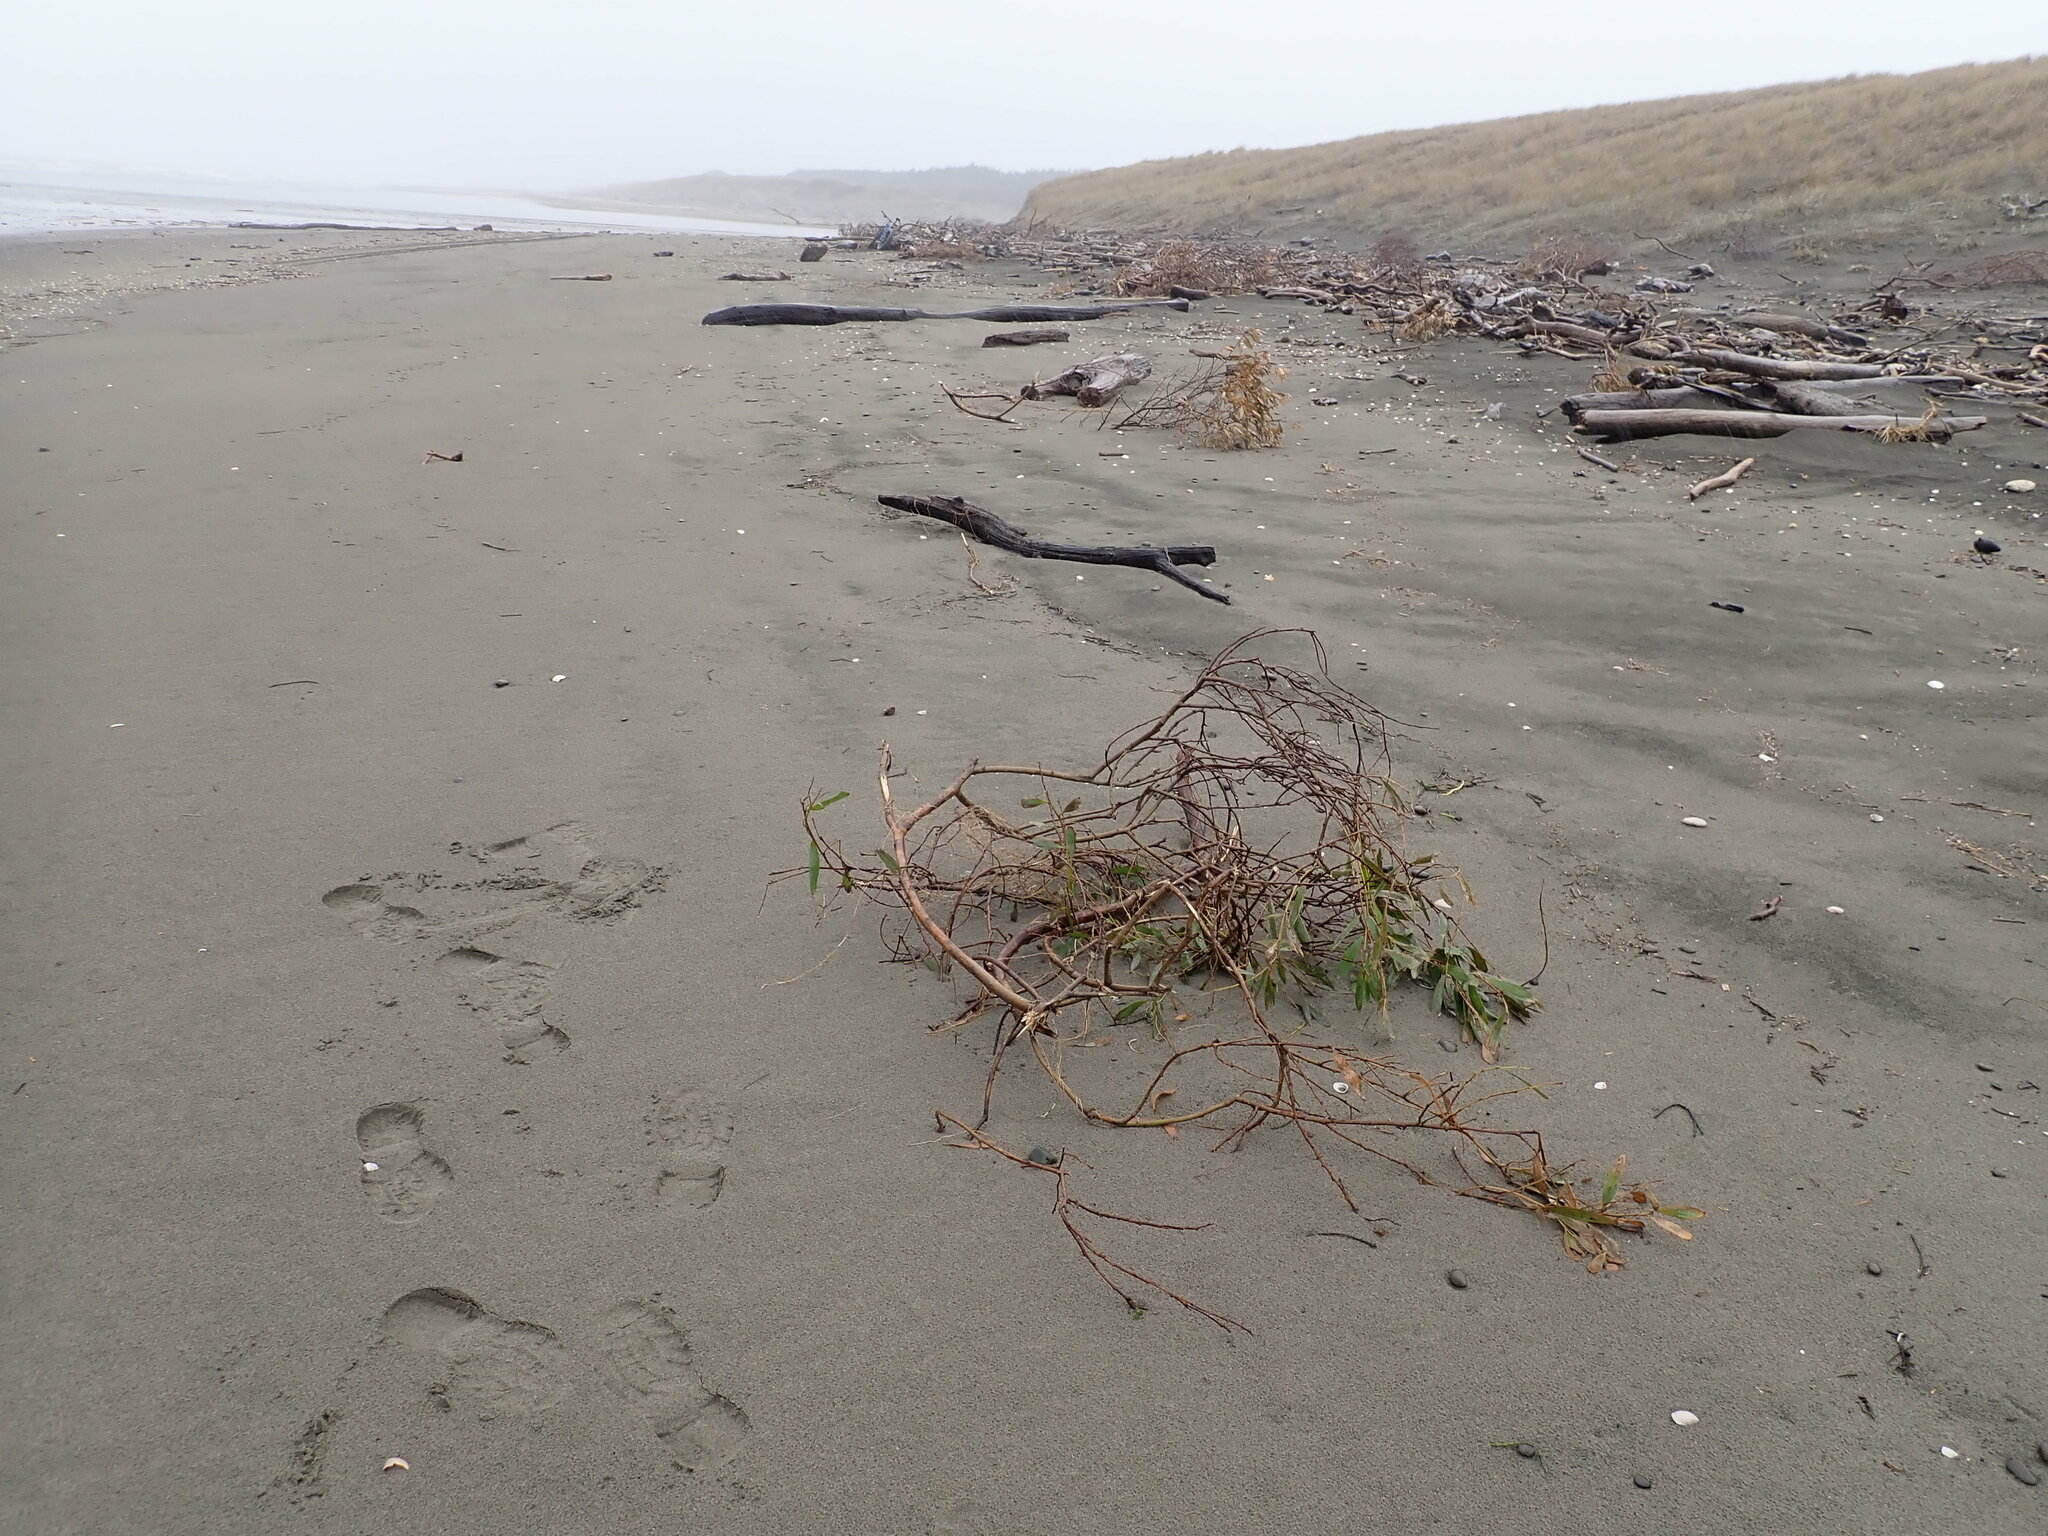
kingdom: Plantae
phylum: Tracheophyta
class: Magnoliopsida
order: Fabales
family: Fabaceae
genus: Acacia
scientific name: Acacia longifolia
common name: Sydney golden wattle
